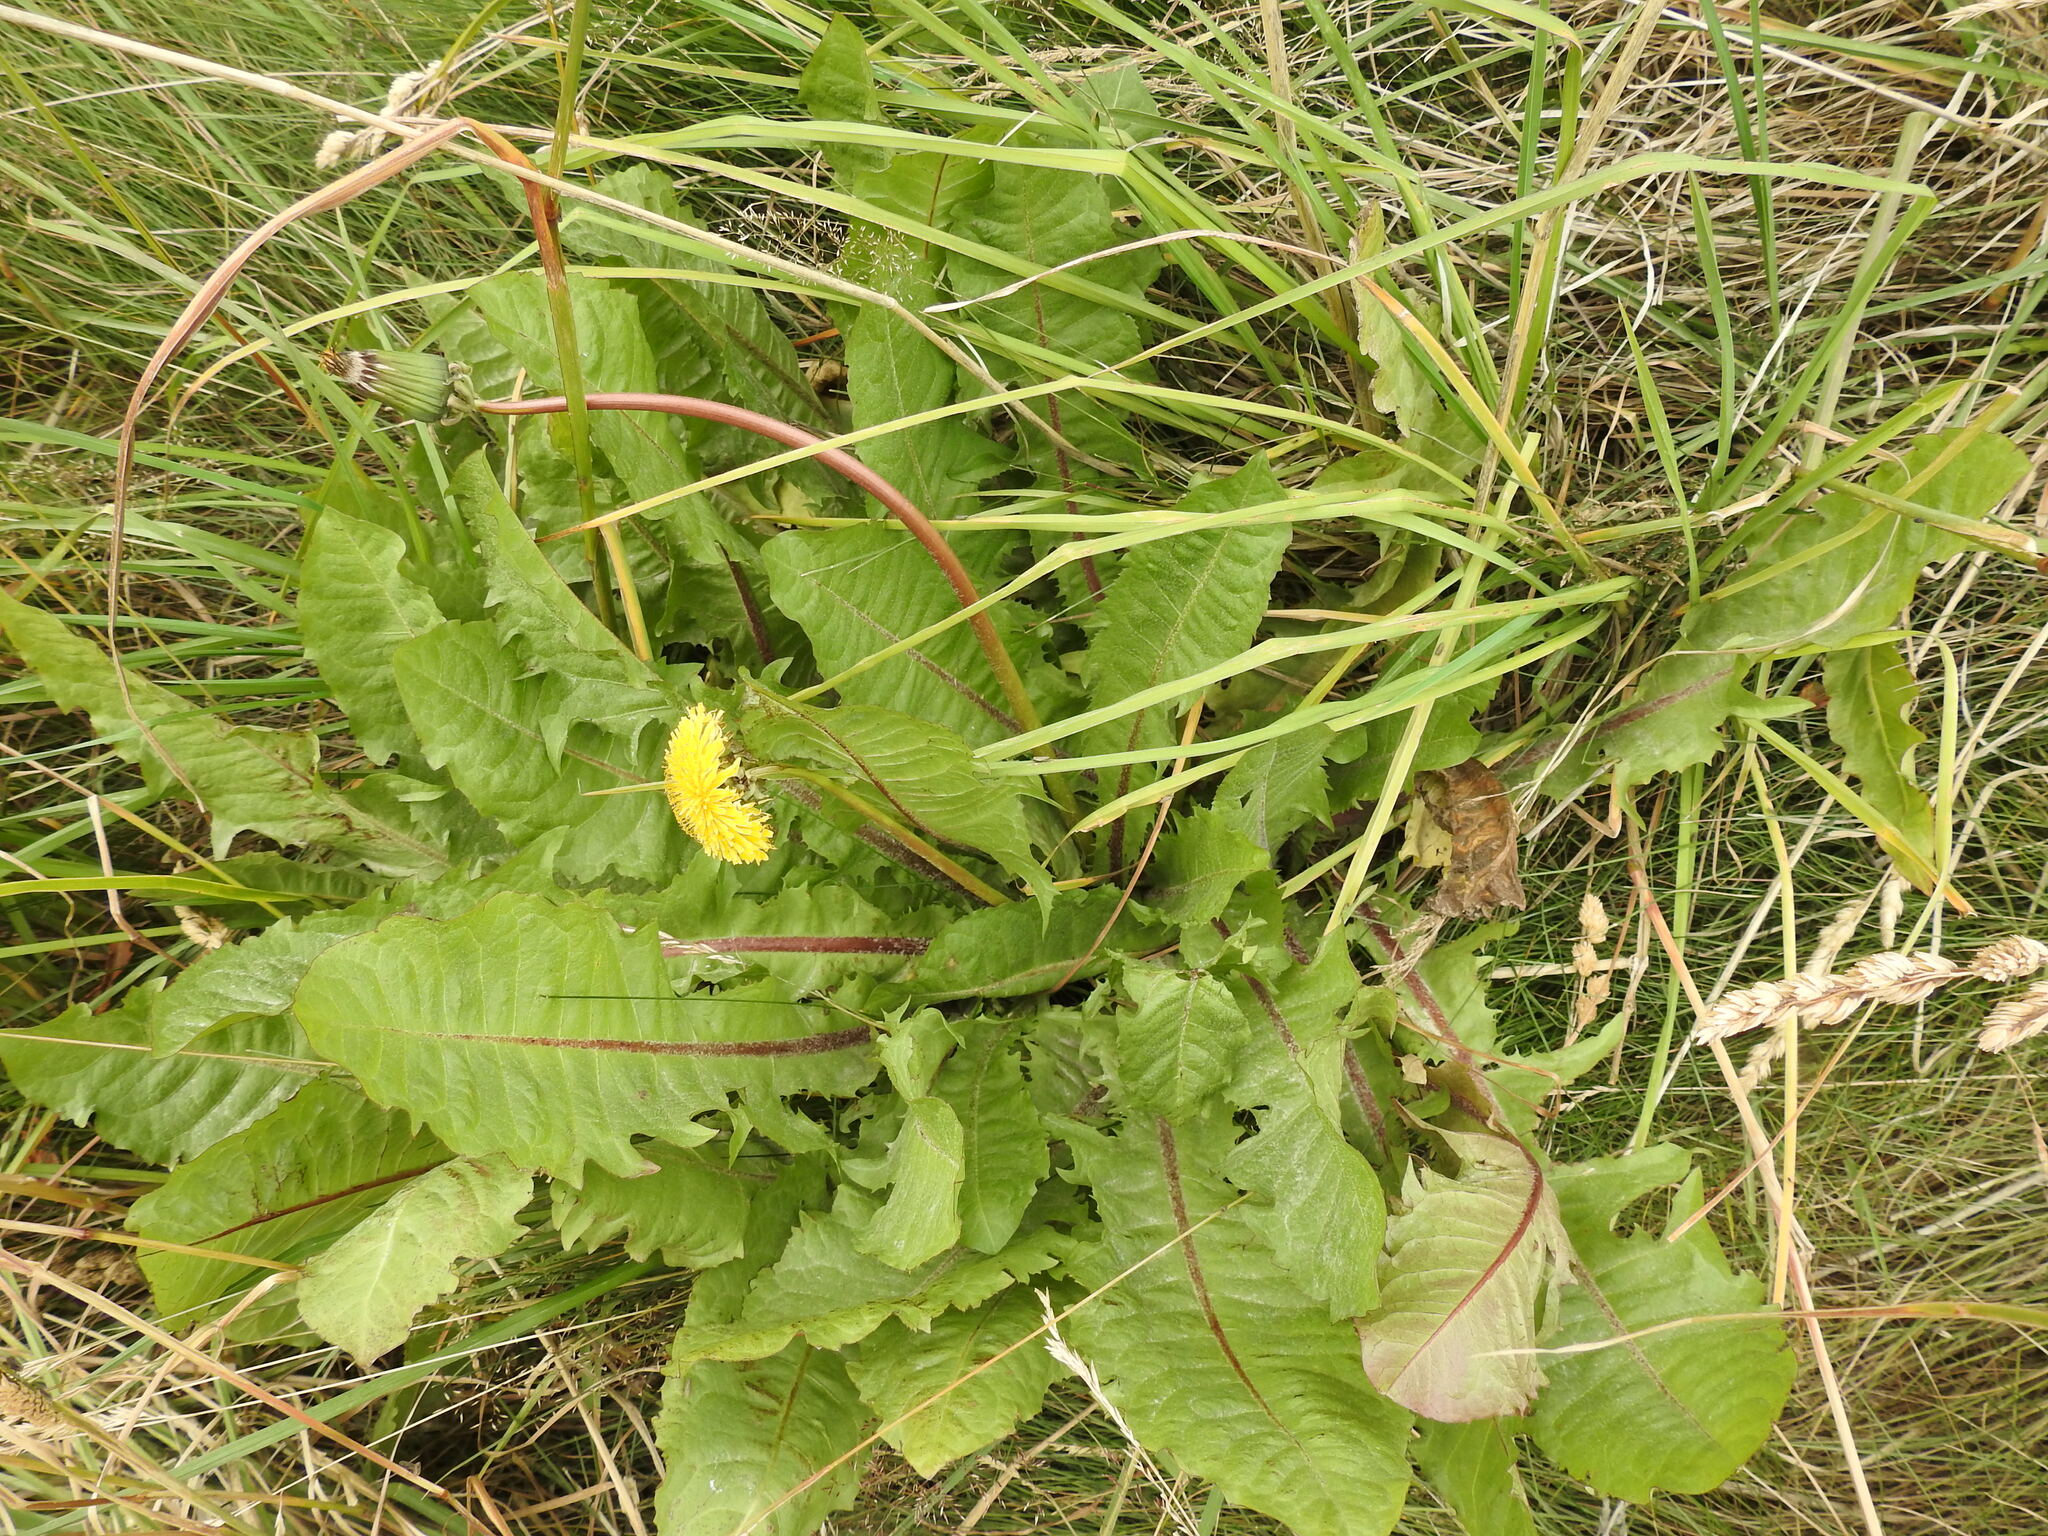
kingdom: Plantae
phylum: Tracheophyta
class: Magnoliopsida
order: Asterales
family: Asteraceae
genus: Taraxacum
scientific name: Taraxacum officinale
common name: Common dandelion
